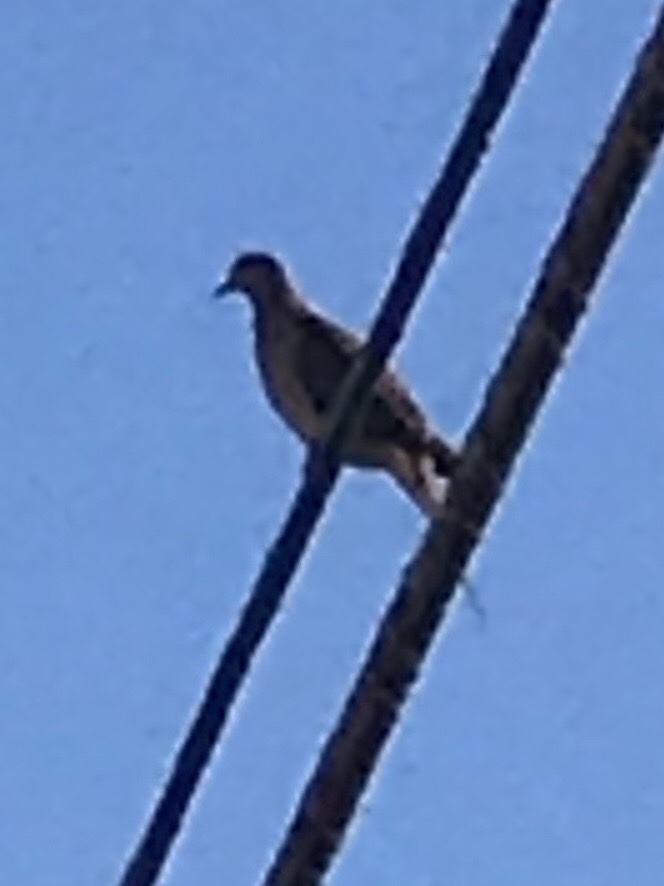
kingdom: Animalia
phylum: Chordata
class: Aves
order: Columbiformes
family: Columbidae
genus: Zenaida
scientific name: Zenaida macroura
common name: Mourning dove
